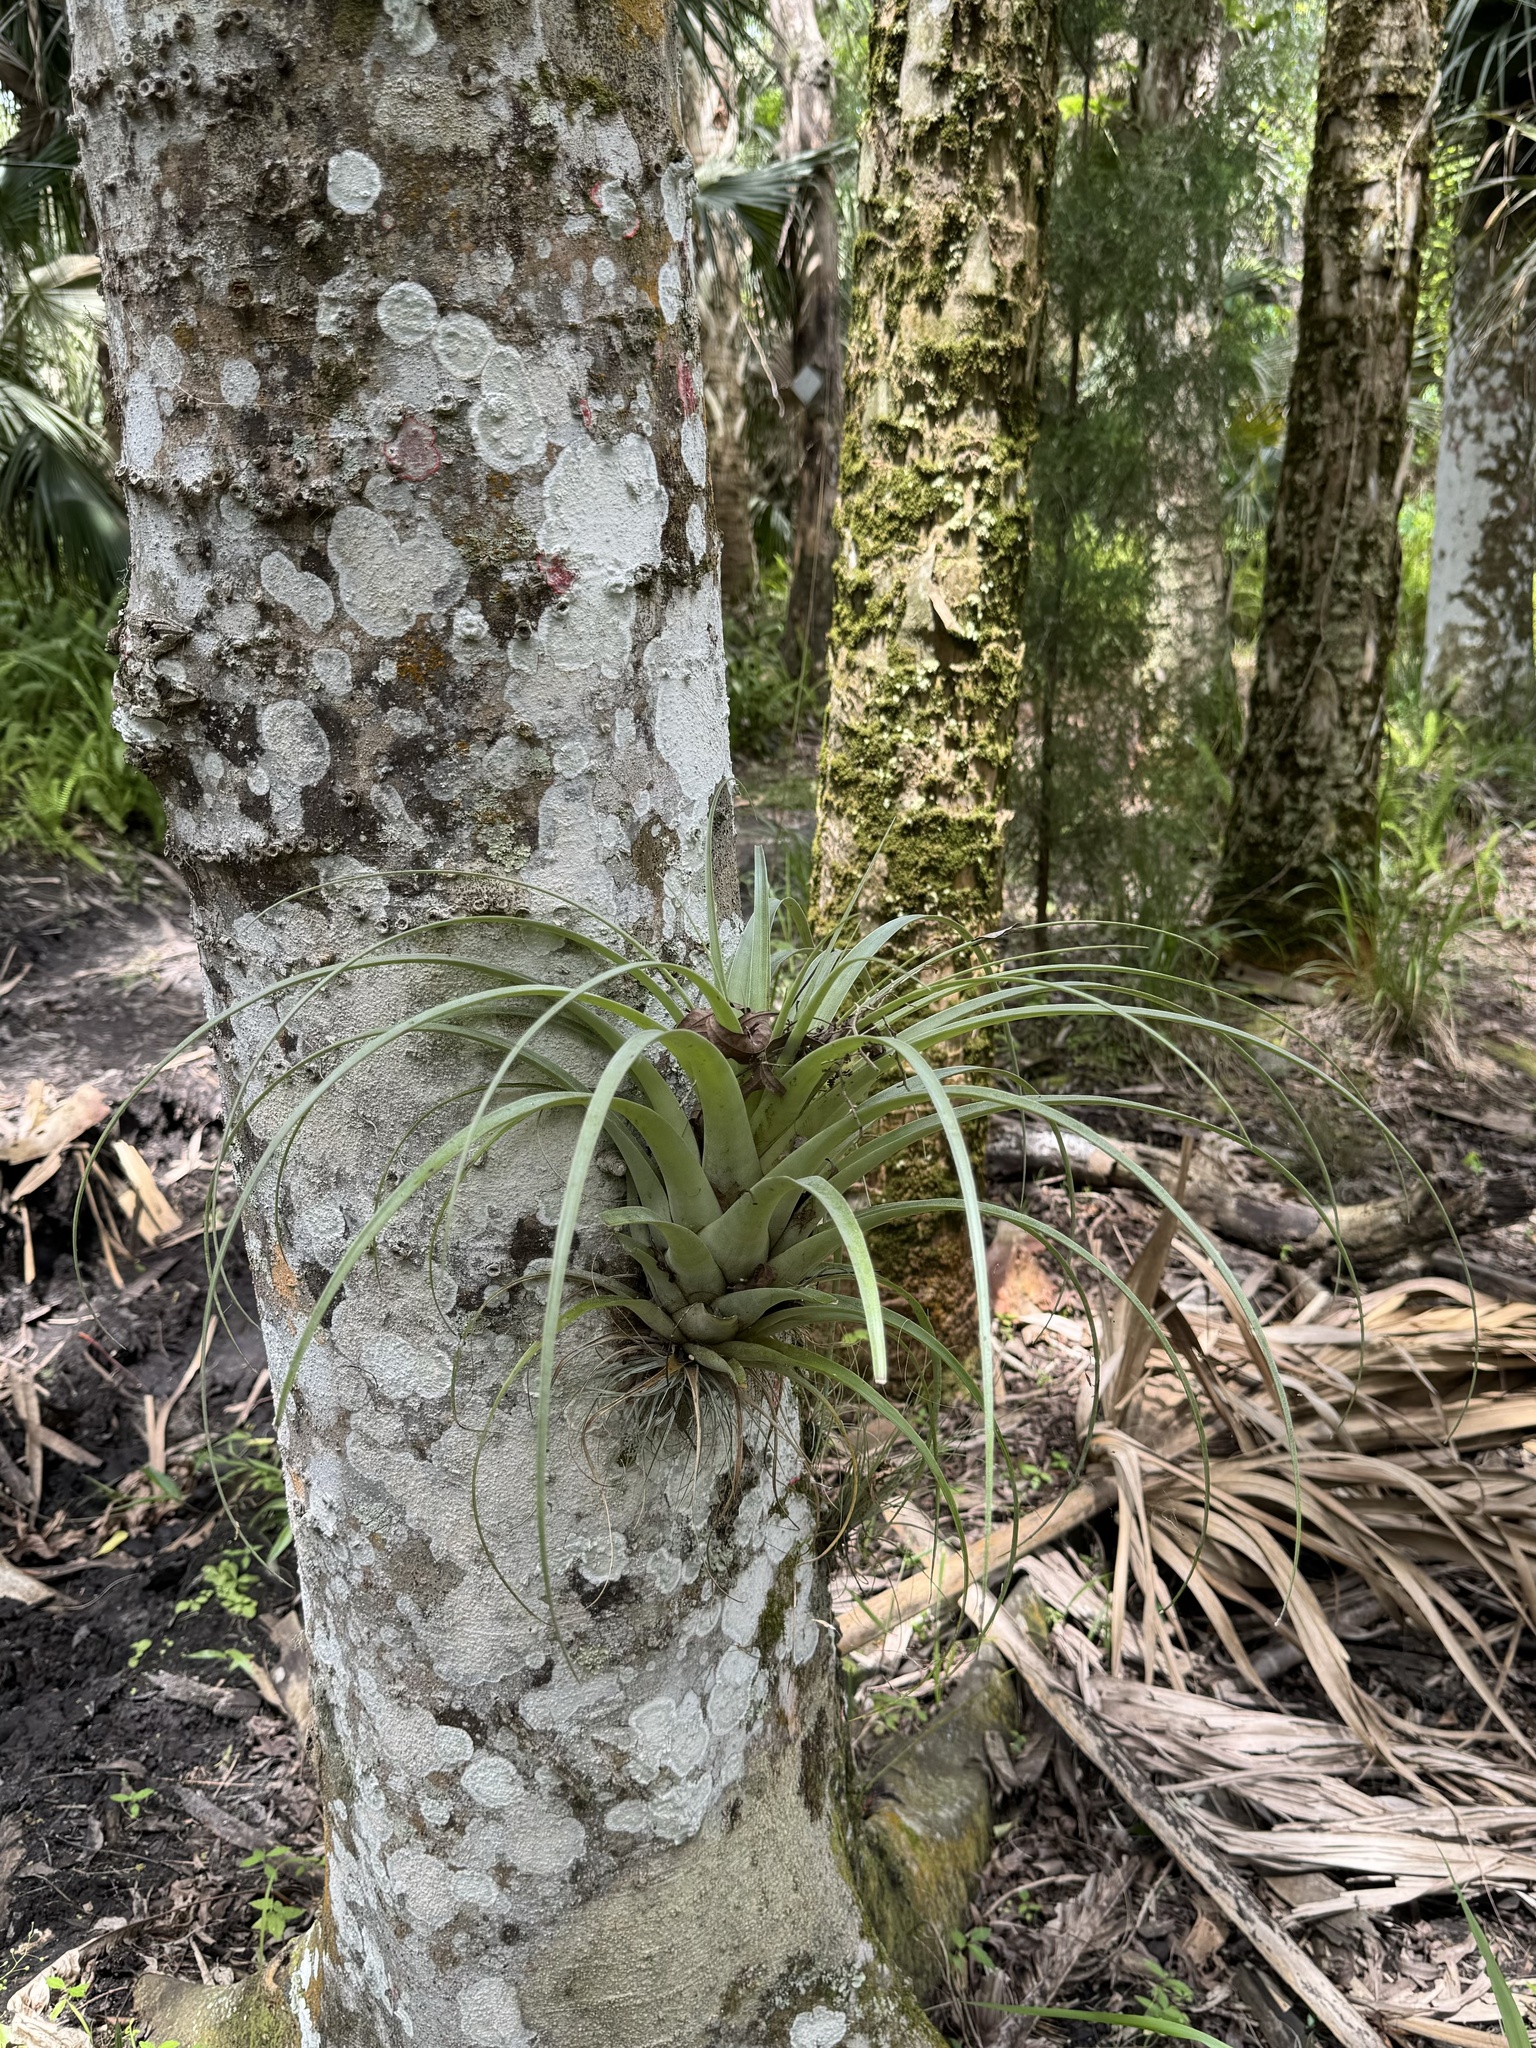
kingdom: Plantae
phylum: Tracheophyta
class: Liliopsida
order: Poales
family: Bromeliaceae
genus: Tillandsia
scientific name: Tillandsia utriculata
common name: Wild pine
